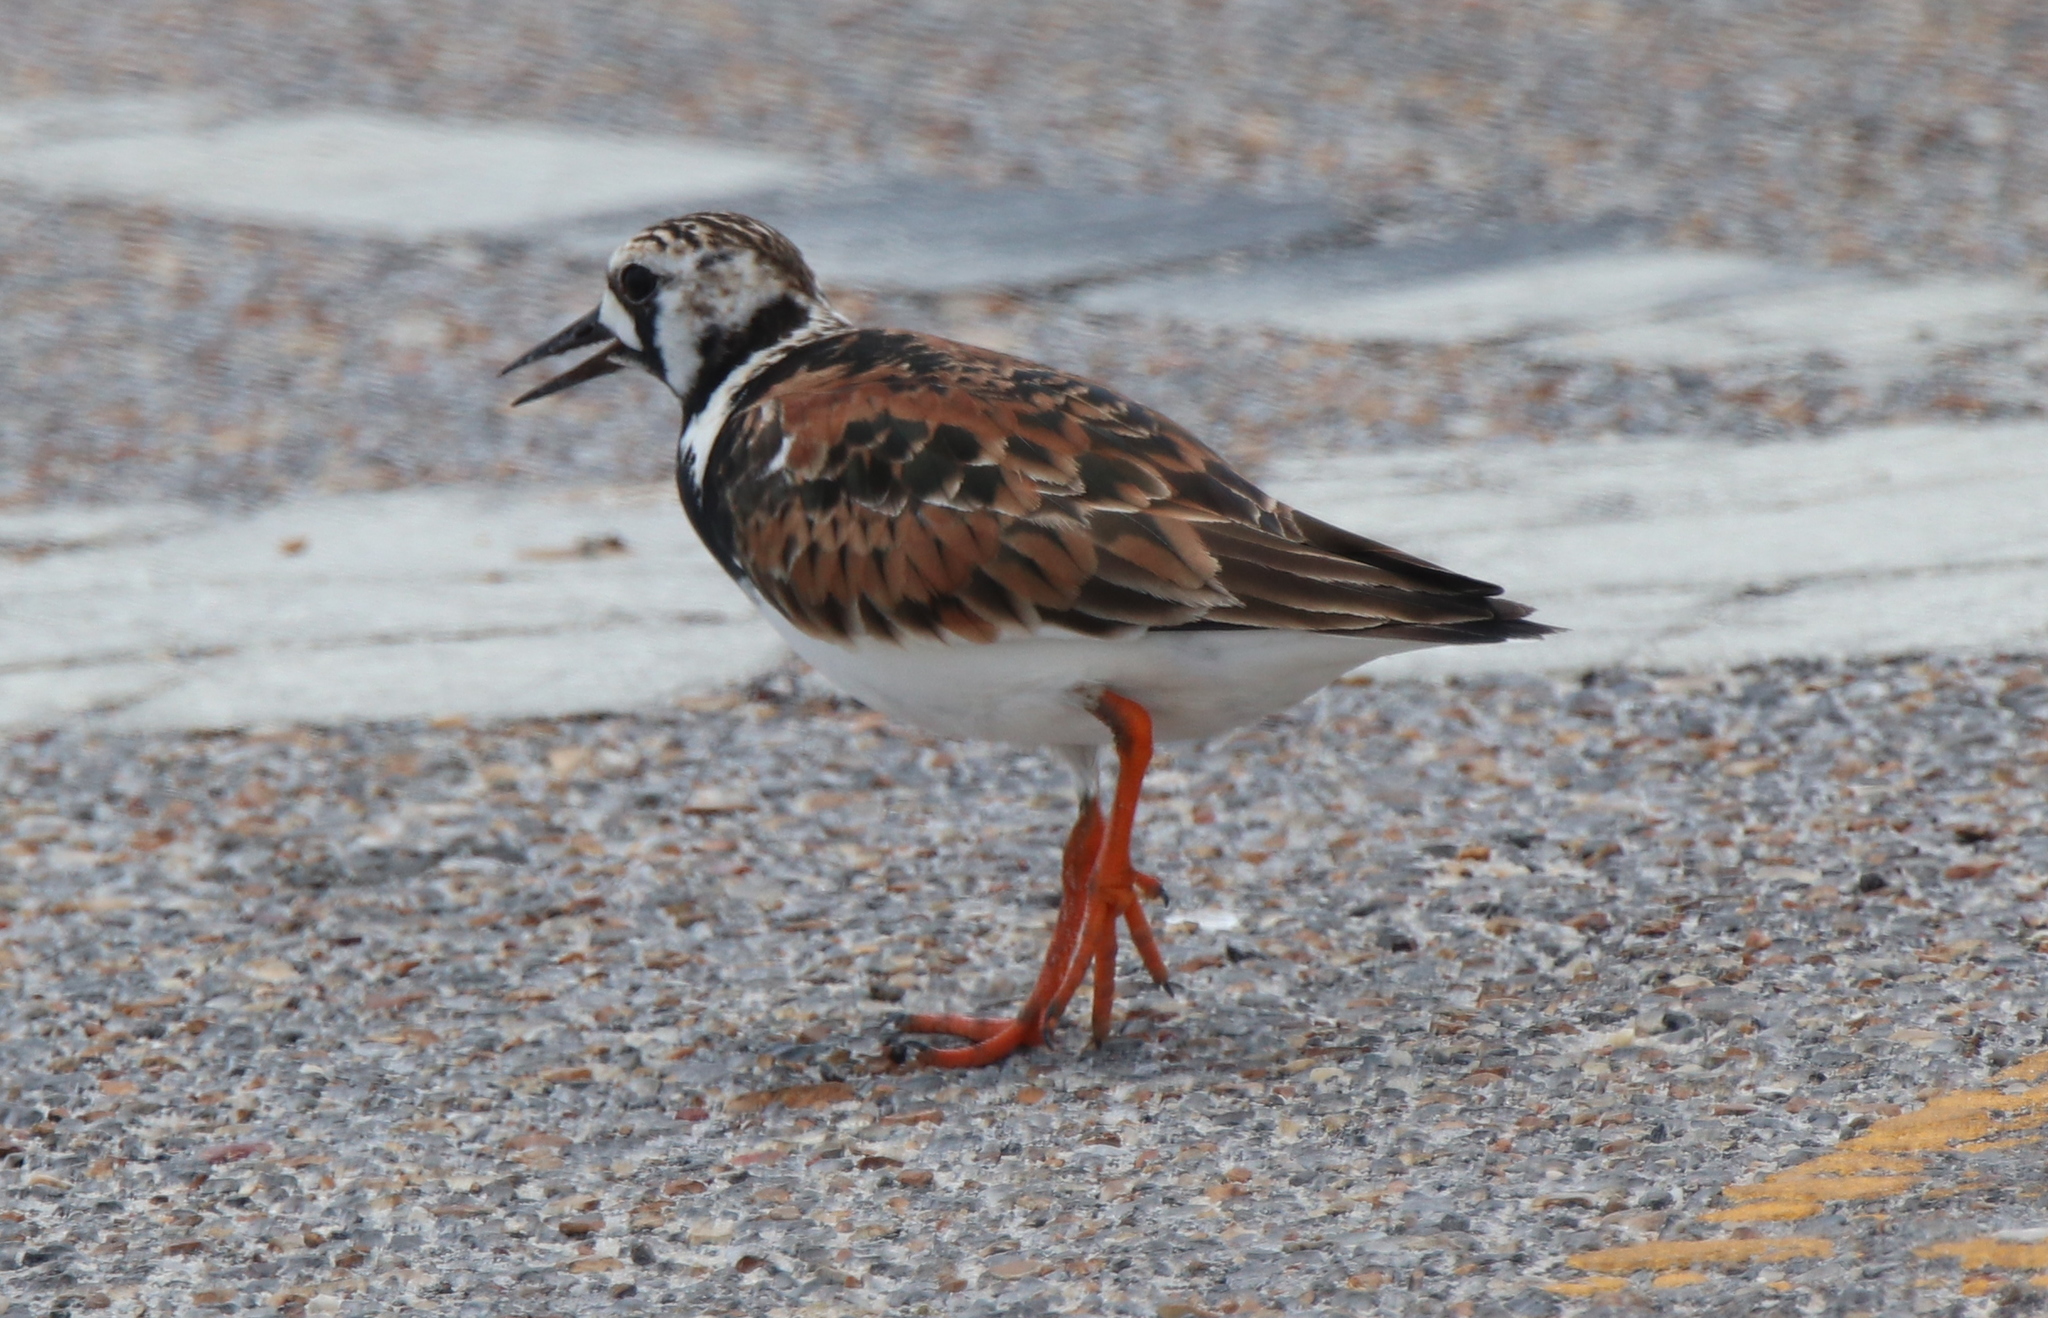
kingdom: Animalia
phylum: Chordata
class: Aves
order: Charadriiformes
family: Scolopacidae
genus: Arenaria
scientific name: Arenaria interpres
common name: Ruddy turnstone
